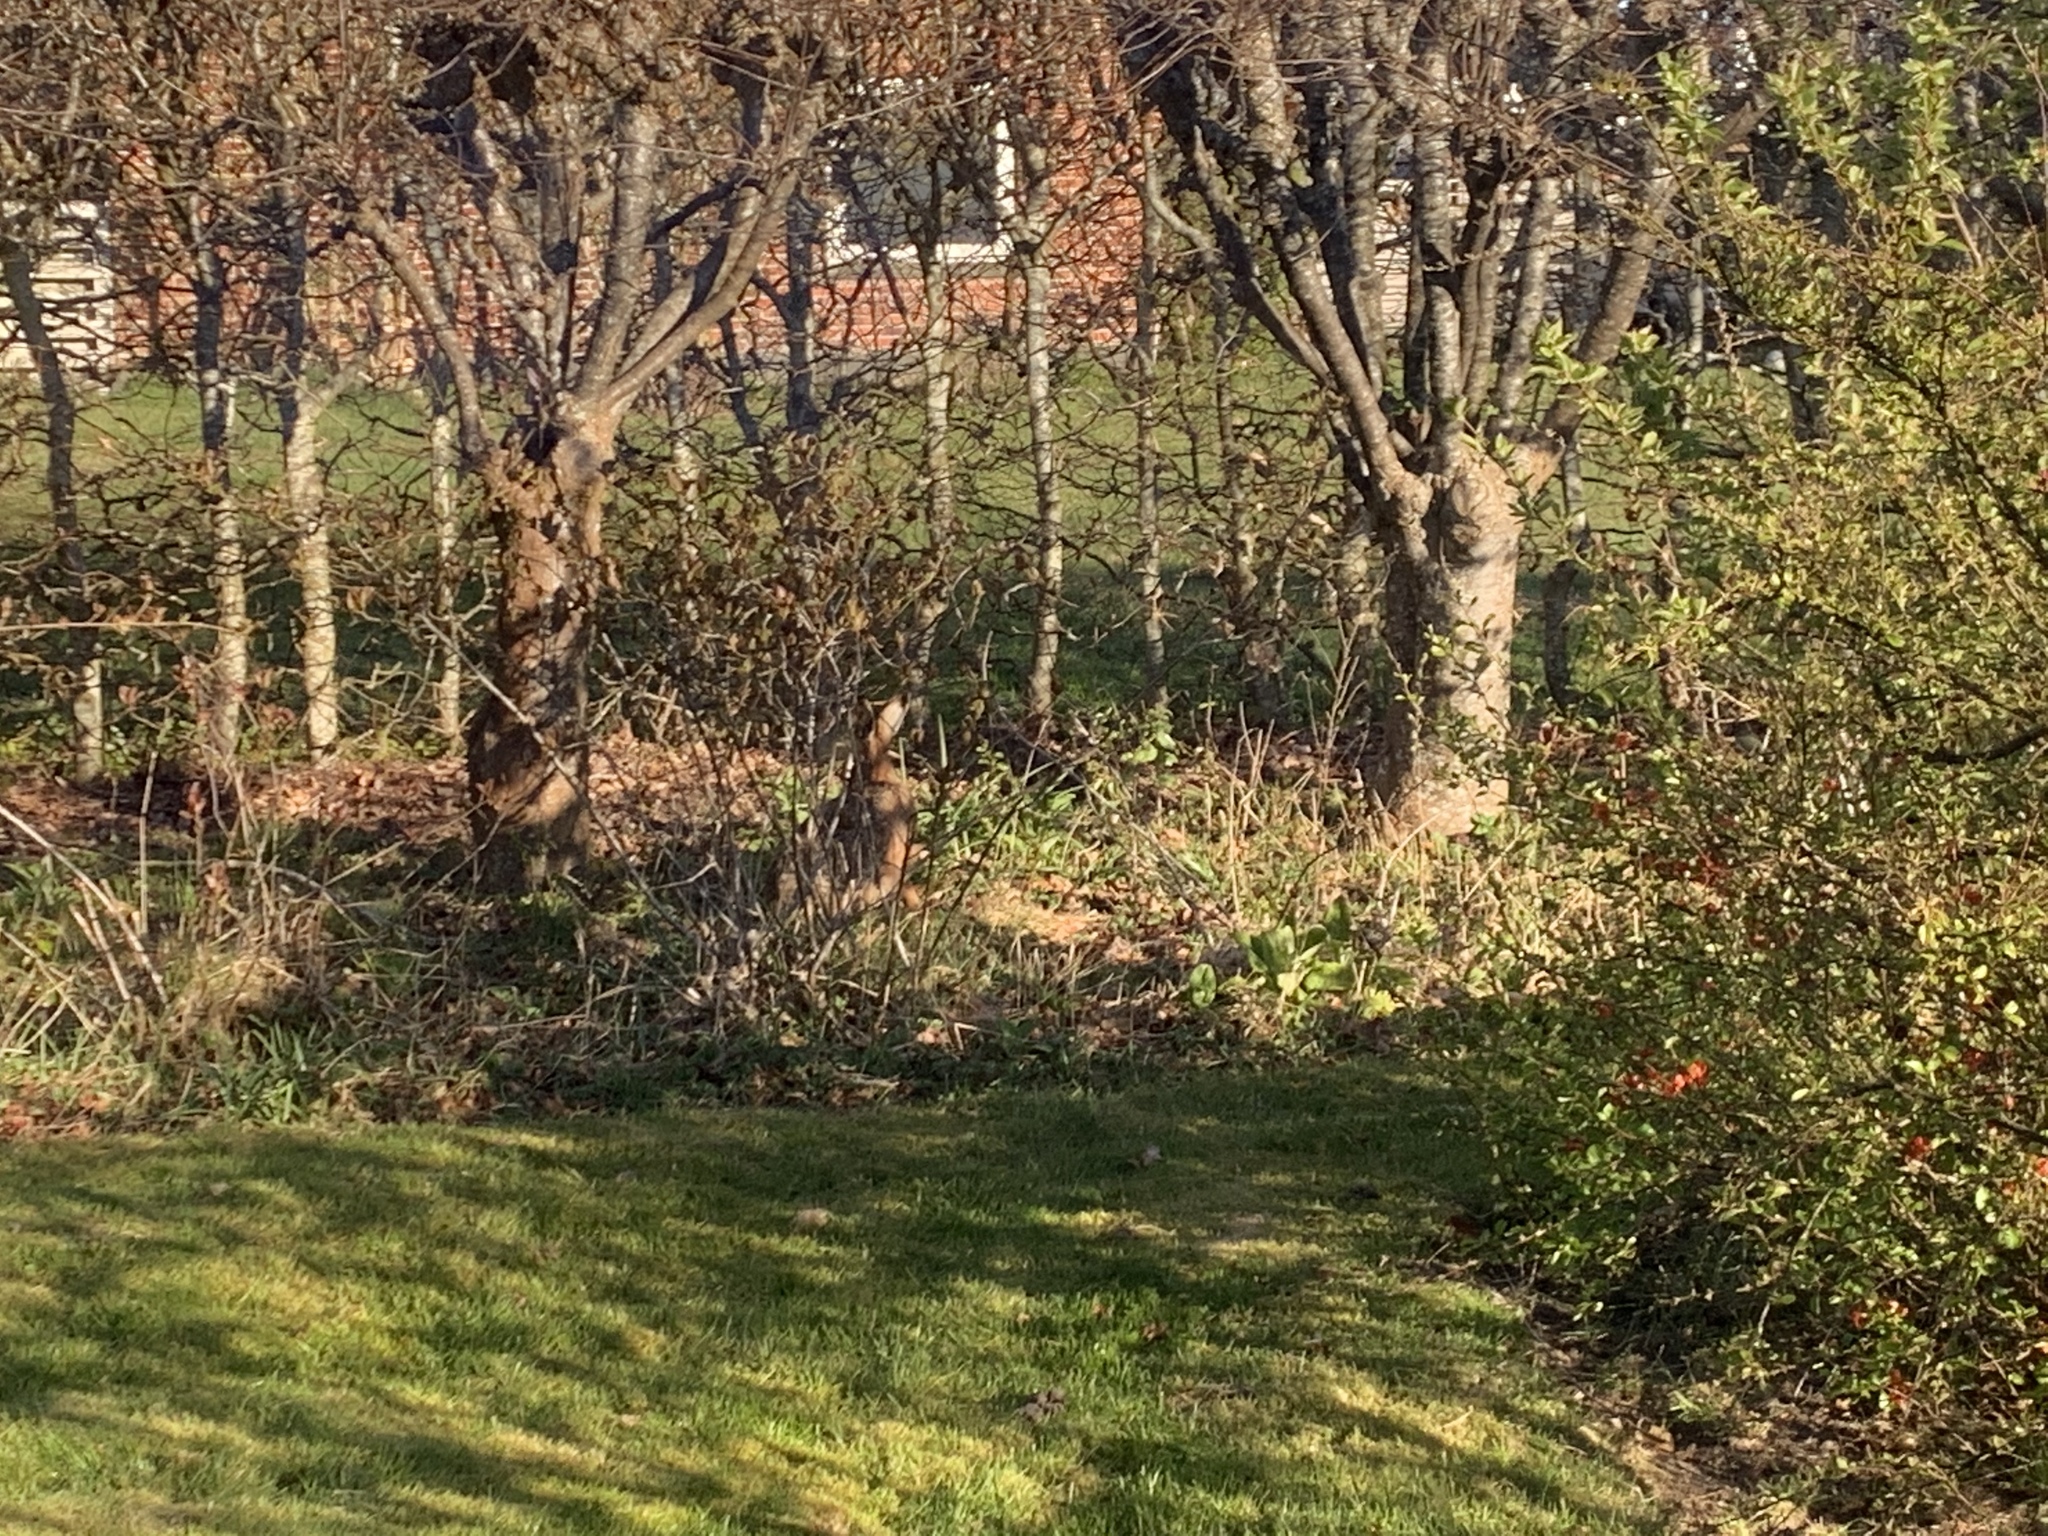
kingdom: Animalia
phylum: Chordata
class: Mammalia
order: Lagomorpha
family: Leporidae
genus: Lepus
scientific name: Lepus europaeus
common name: European hare
